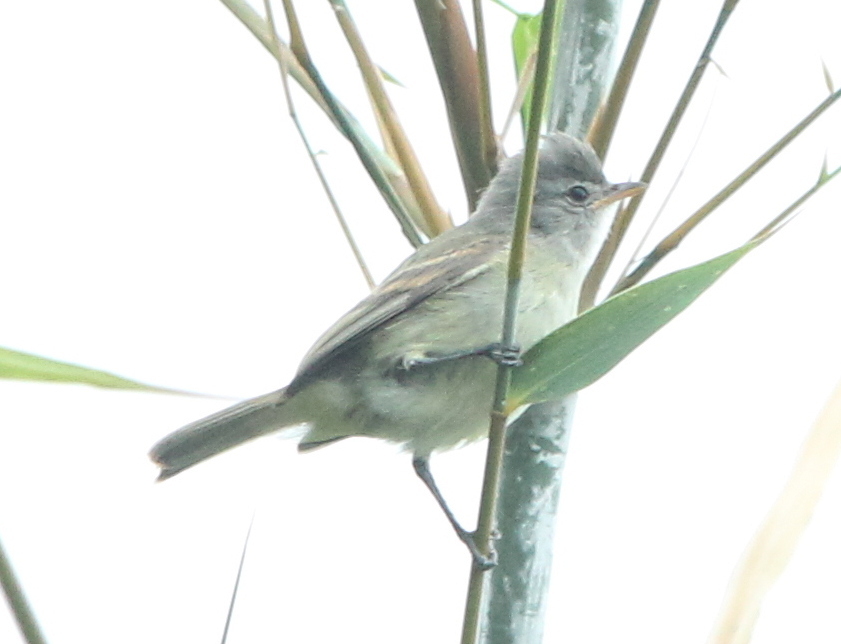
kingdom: Animalia
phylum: Chordata
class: Aves
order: Passeriformes
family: Tyrannidae
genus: Camptostoma
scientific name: Camptostoma obsoletum
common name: Southern beardless-tyrannulet
